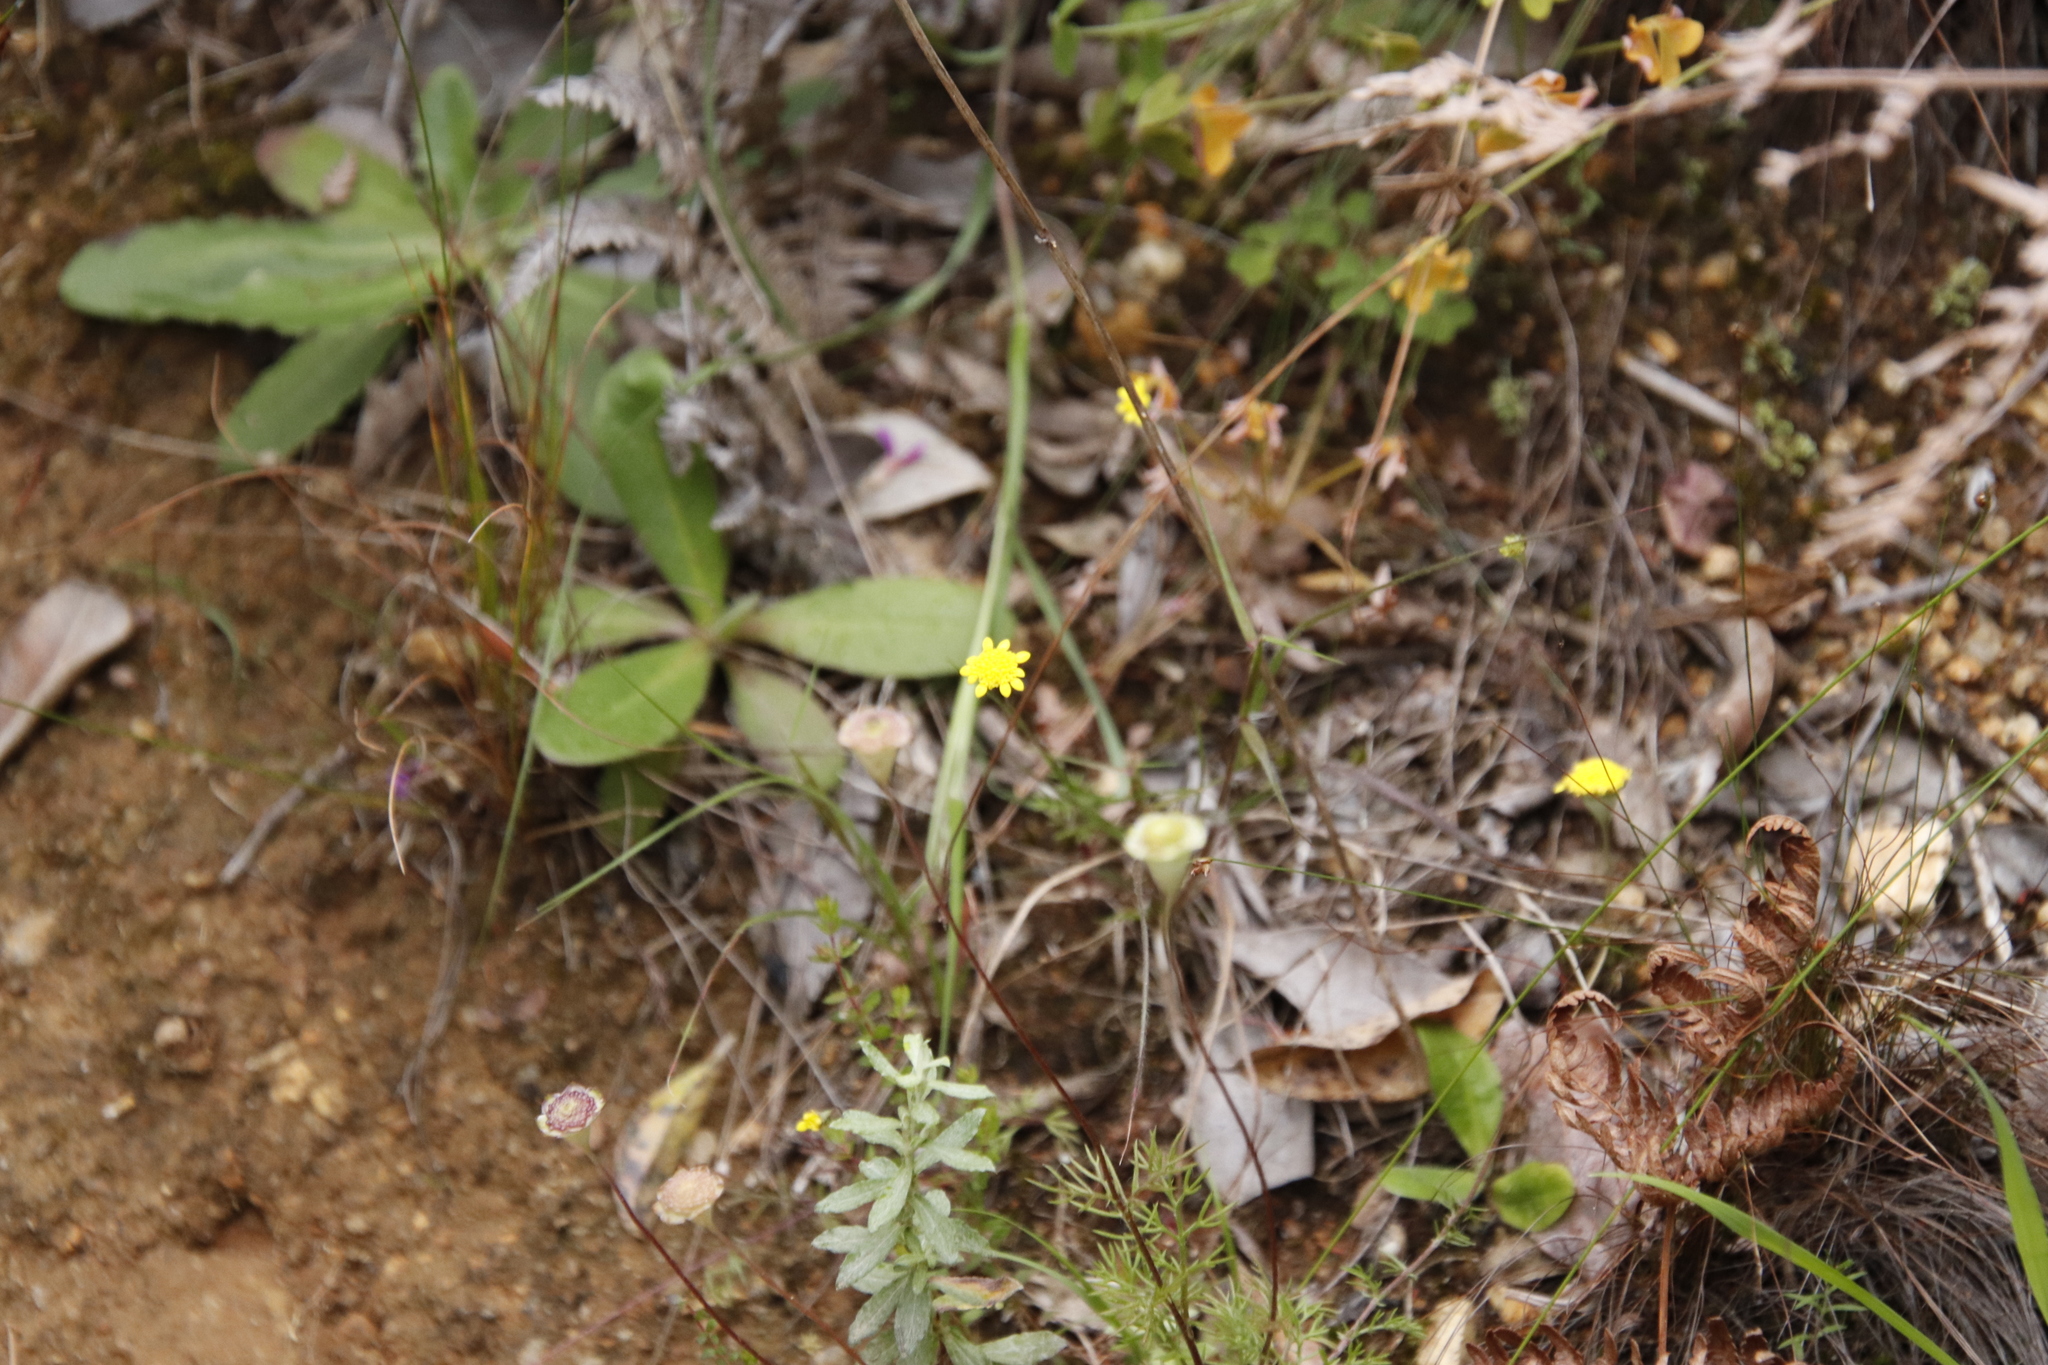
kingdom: Plantae
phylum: Tracheophyta
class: Magnoliopsida
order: Asterales
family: Asteraceae
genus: Cotula
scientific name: Cotula pruinosa
